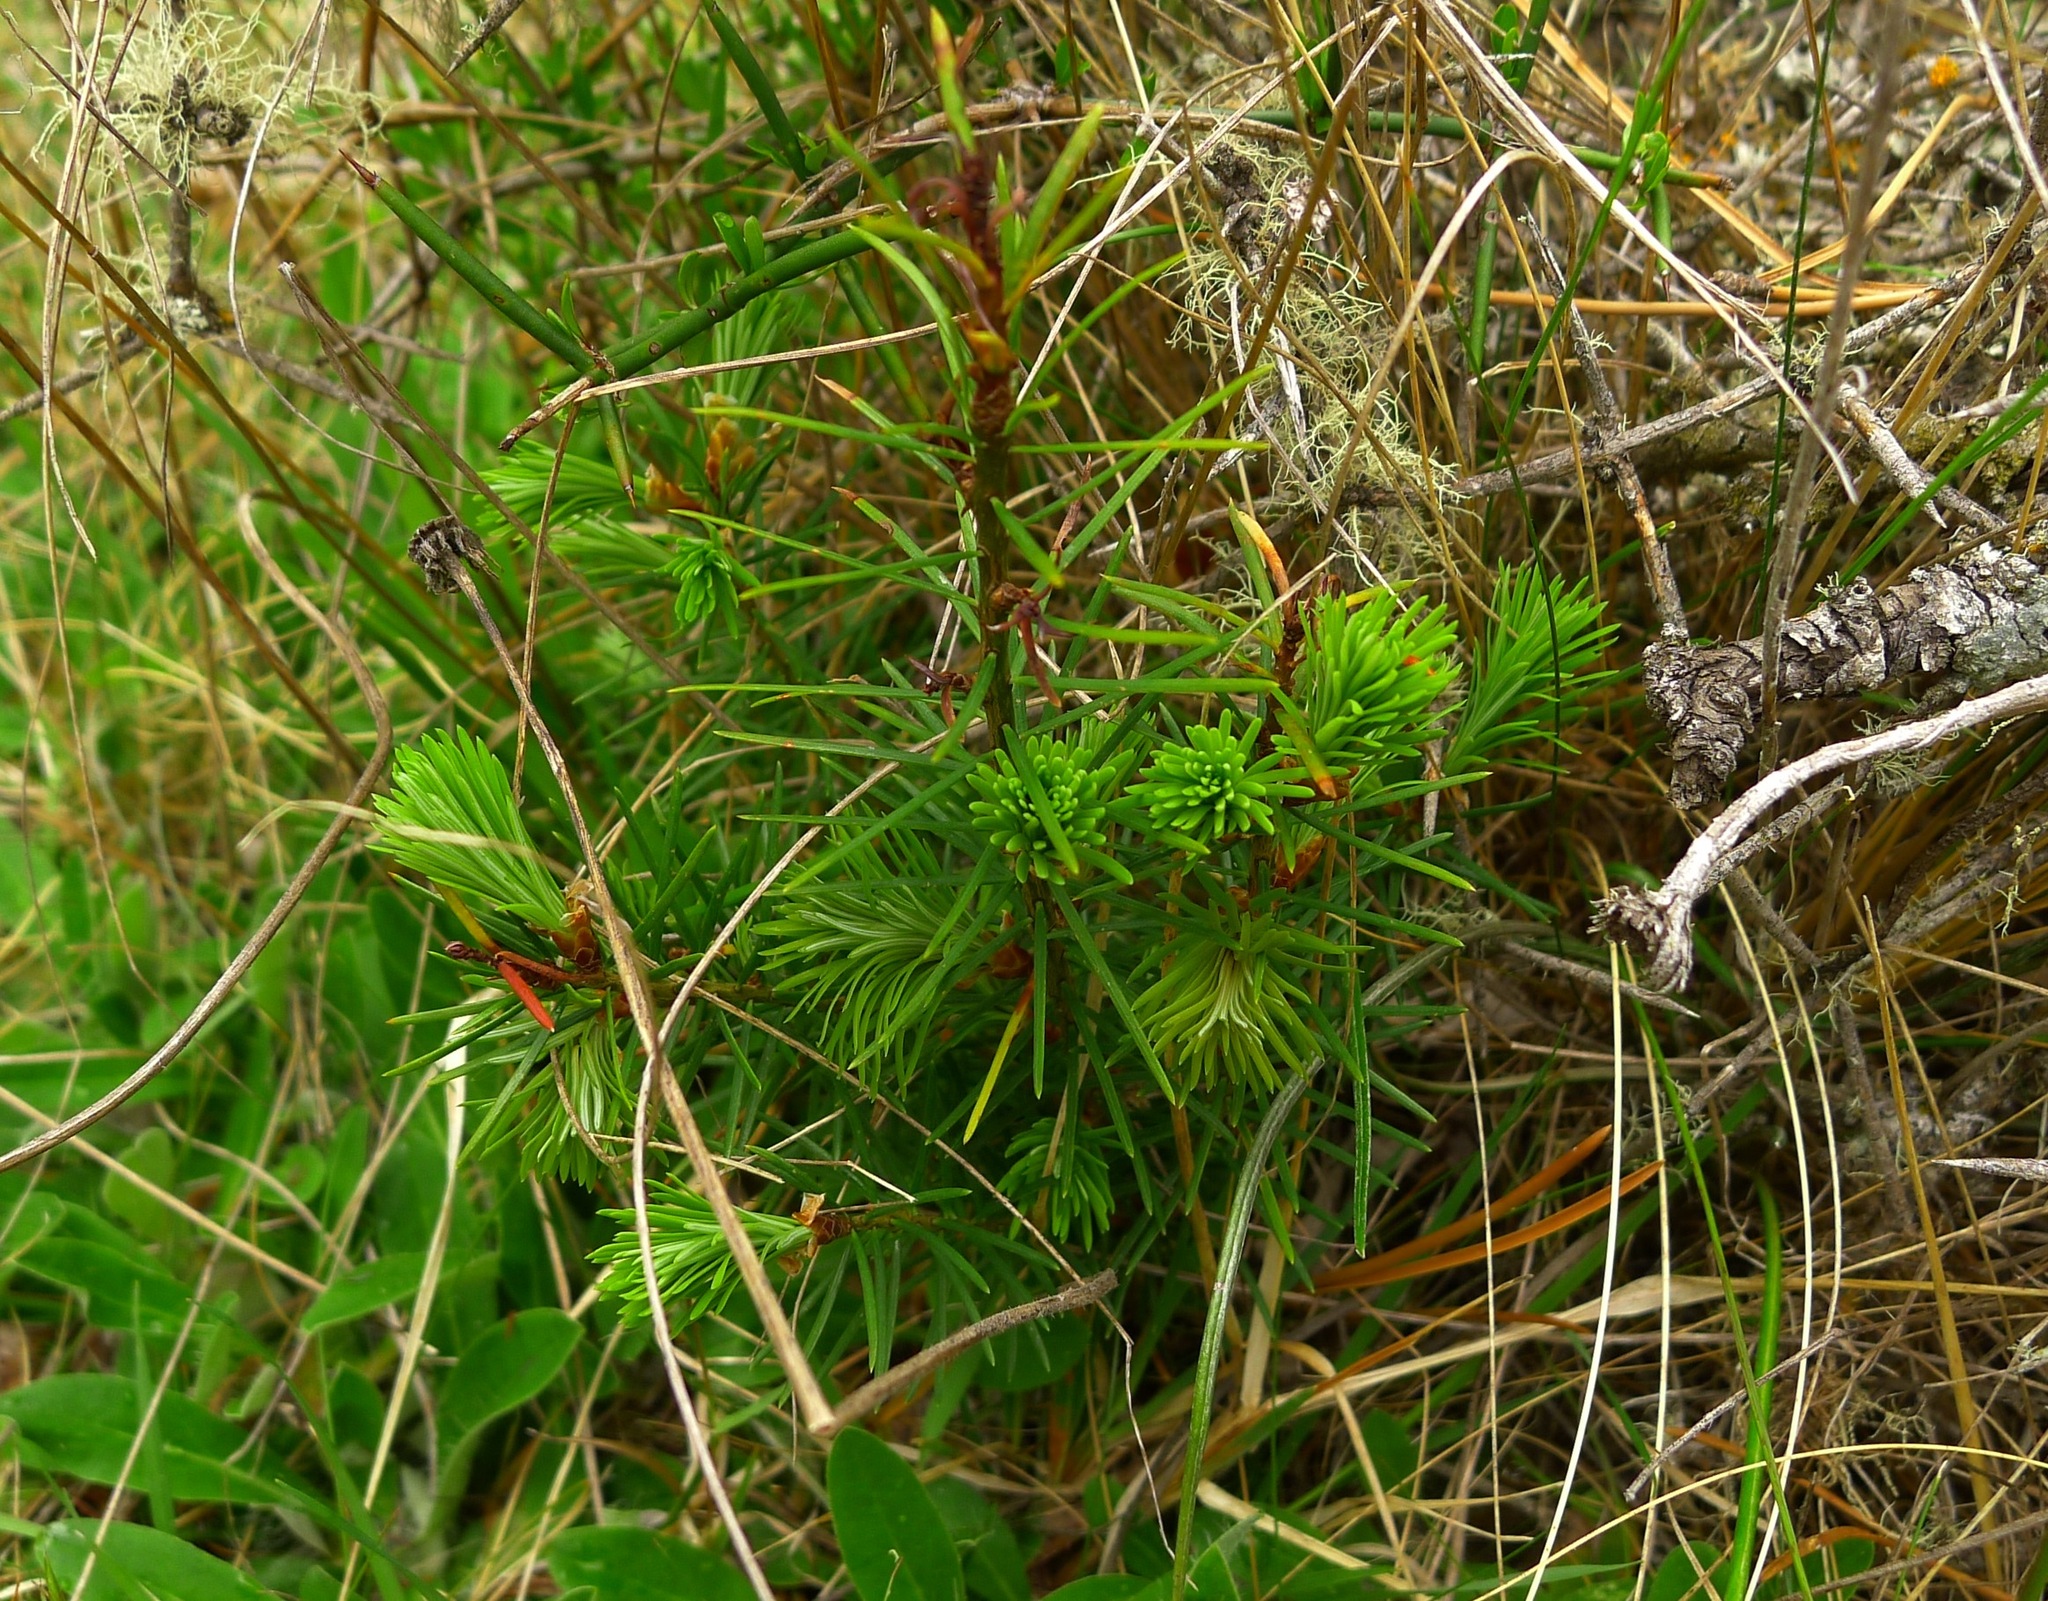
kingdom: Plantae
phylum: Tracheophyta
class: Pinopsida
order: Pinales
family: Pinaceae
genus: Pseudotsuga
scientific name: Pseudotsuga menziesii
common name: Douglas fir
